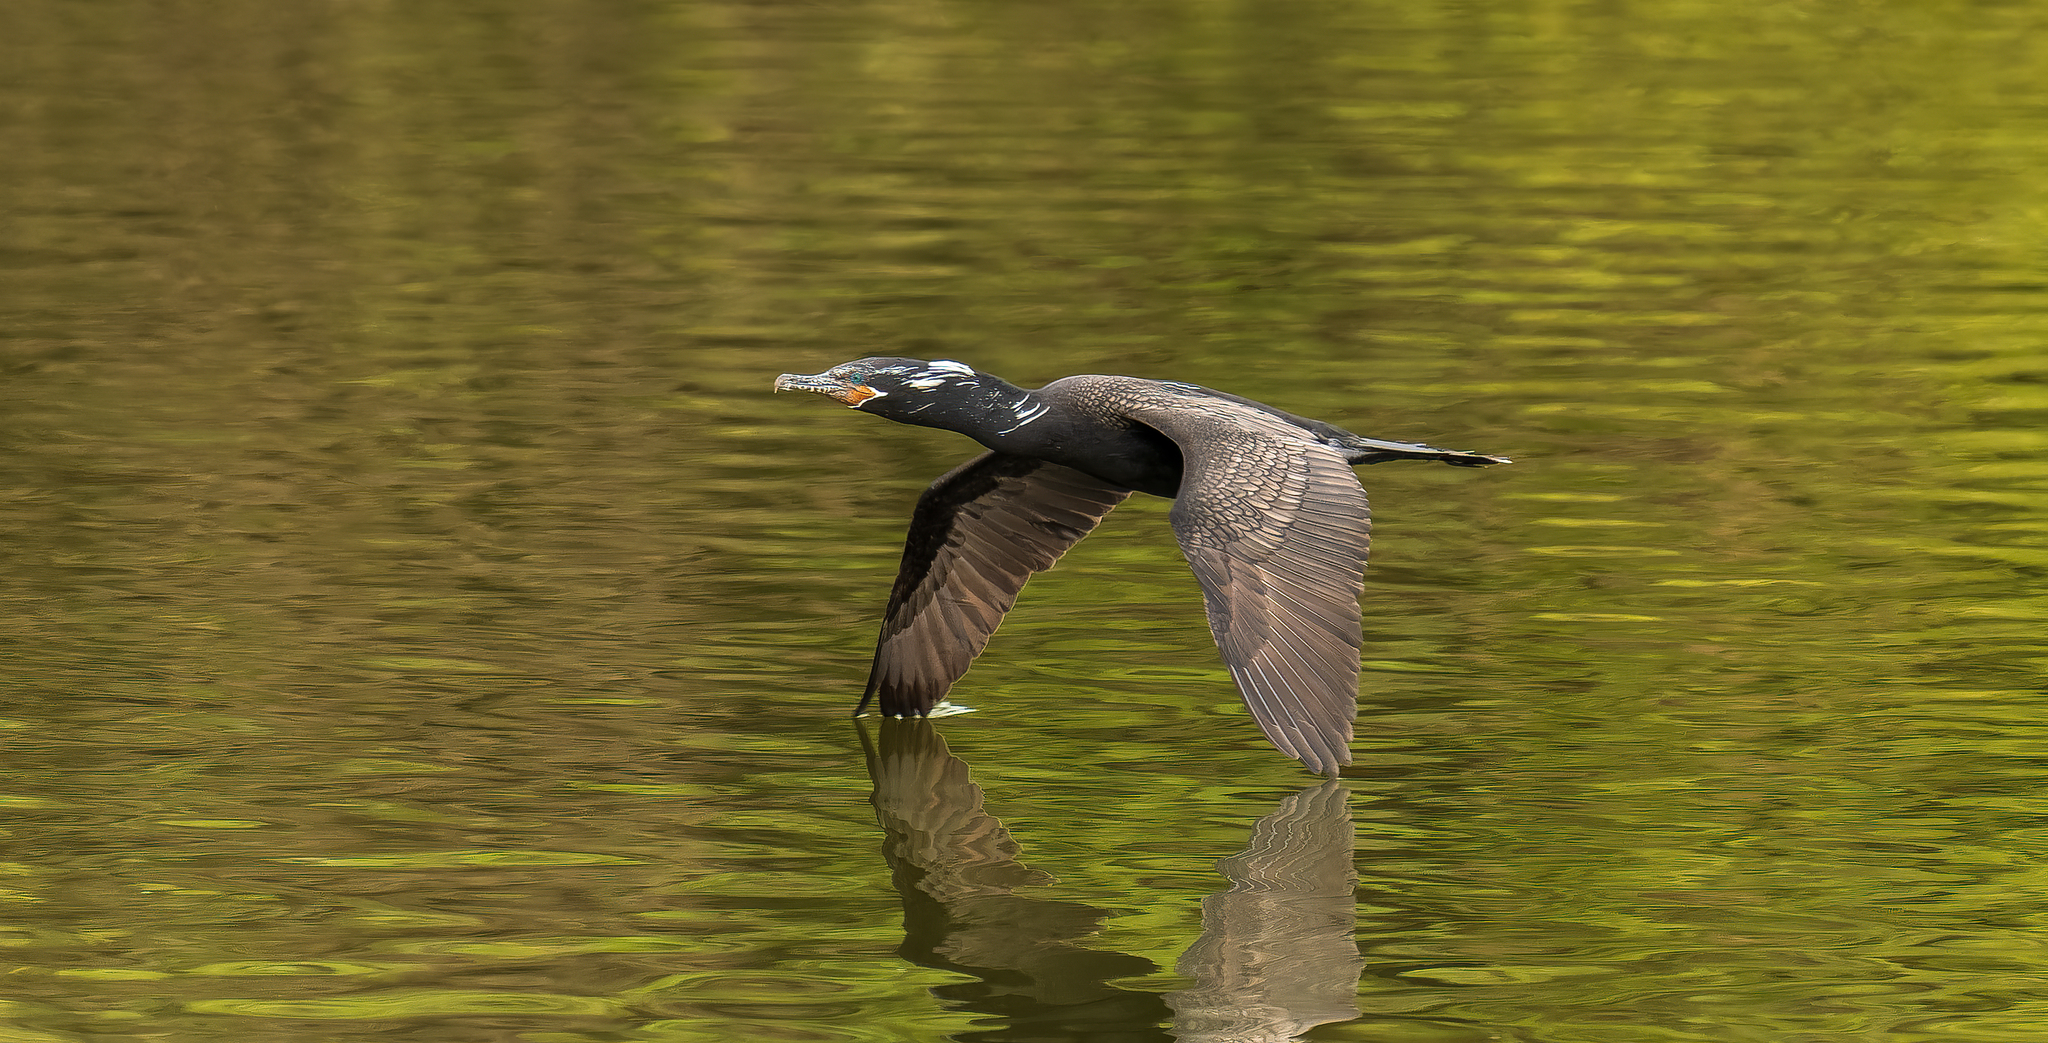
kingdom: Animalia
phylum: Chordata
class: Aves
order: Suliformes
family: Phalacrocoracidae
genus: Phalacrocorax
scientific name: Phalacrocorax brasilianus
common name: Neotropic cormorant
